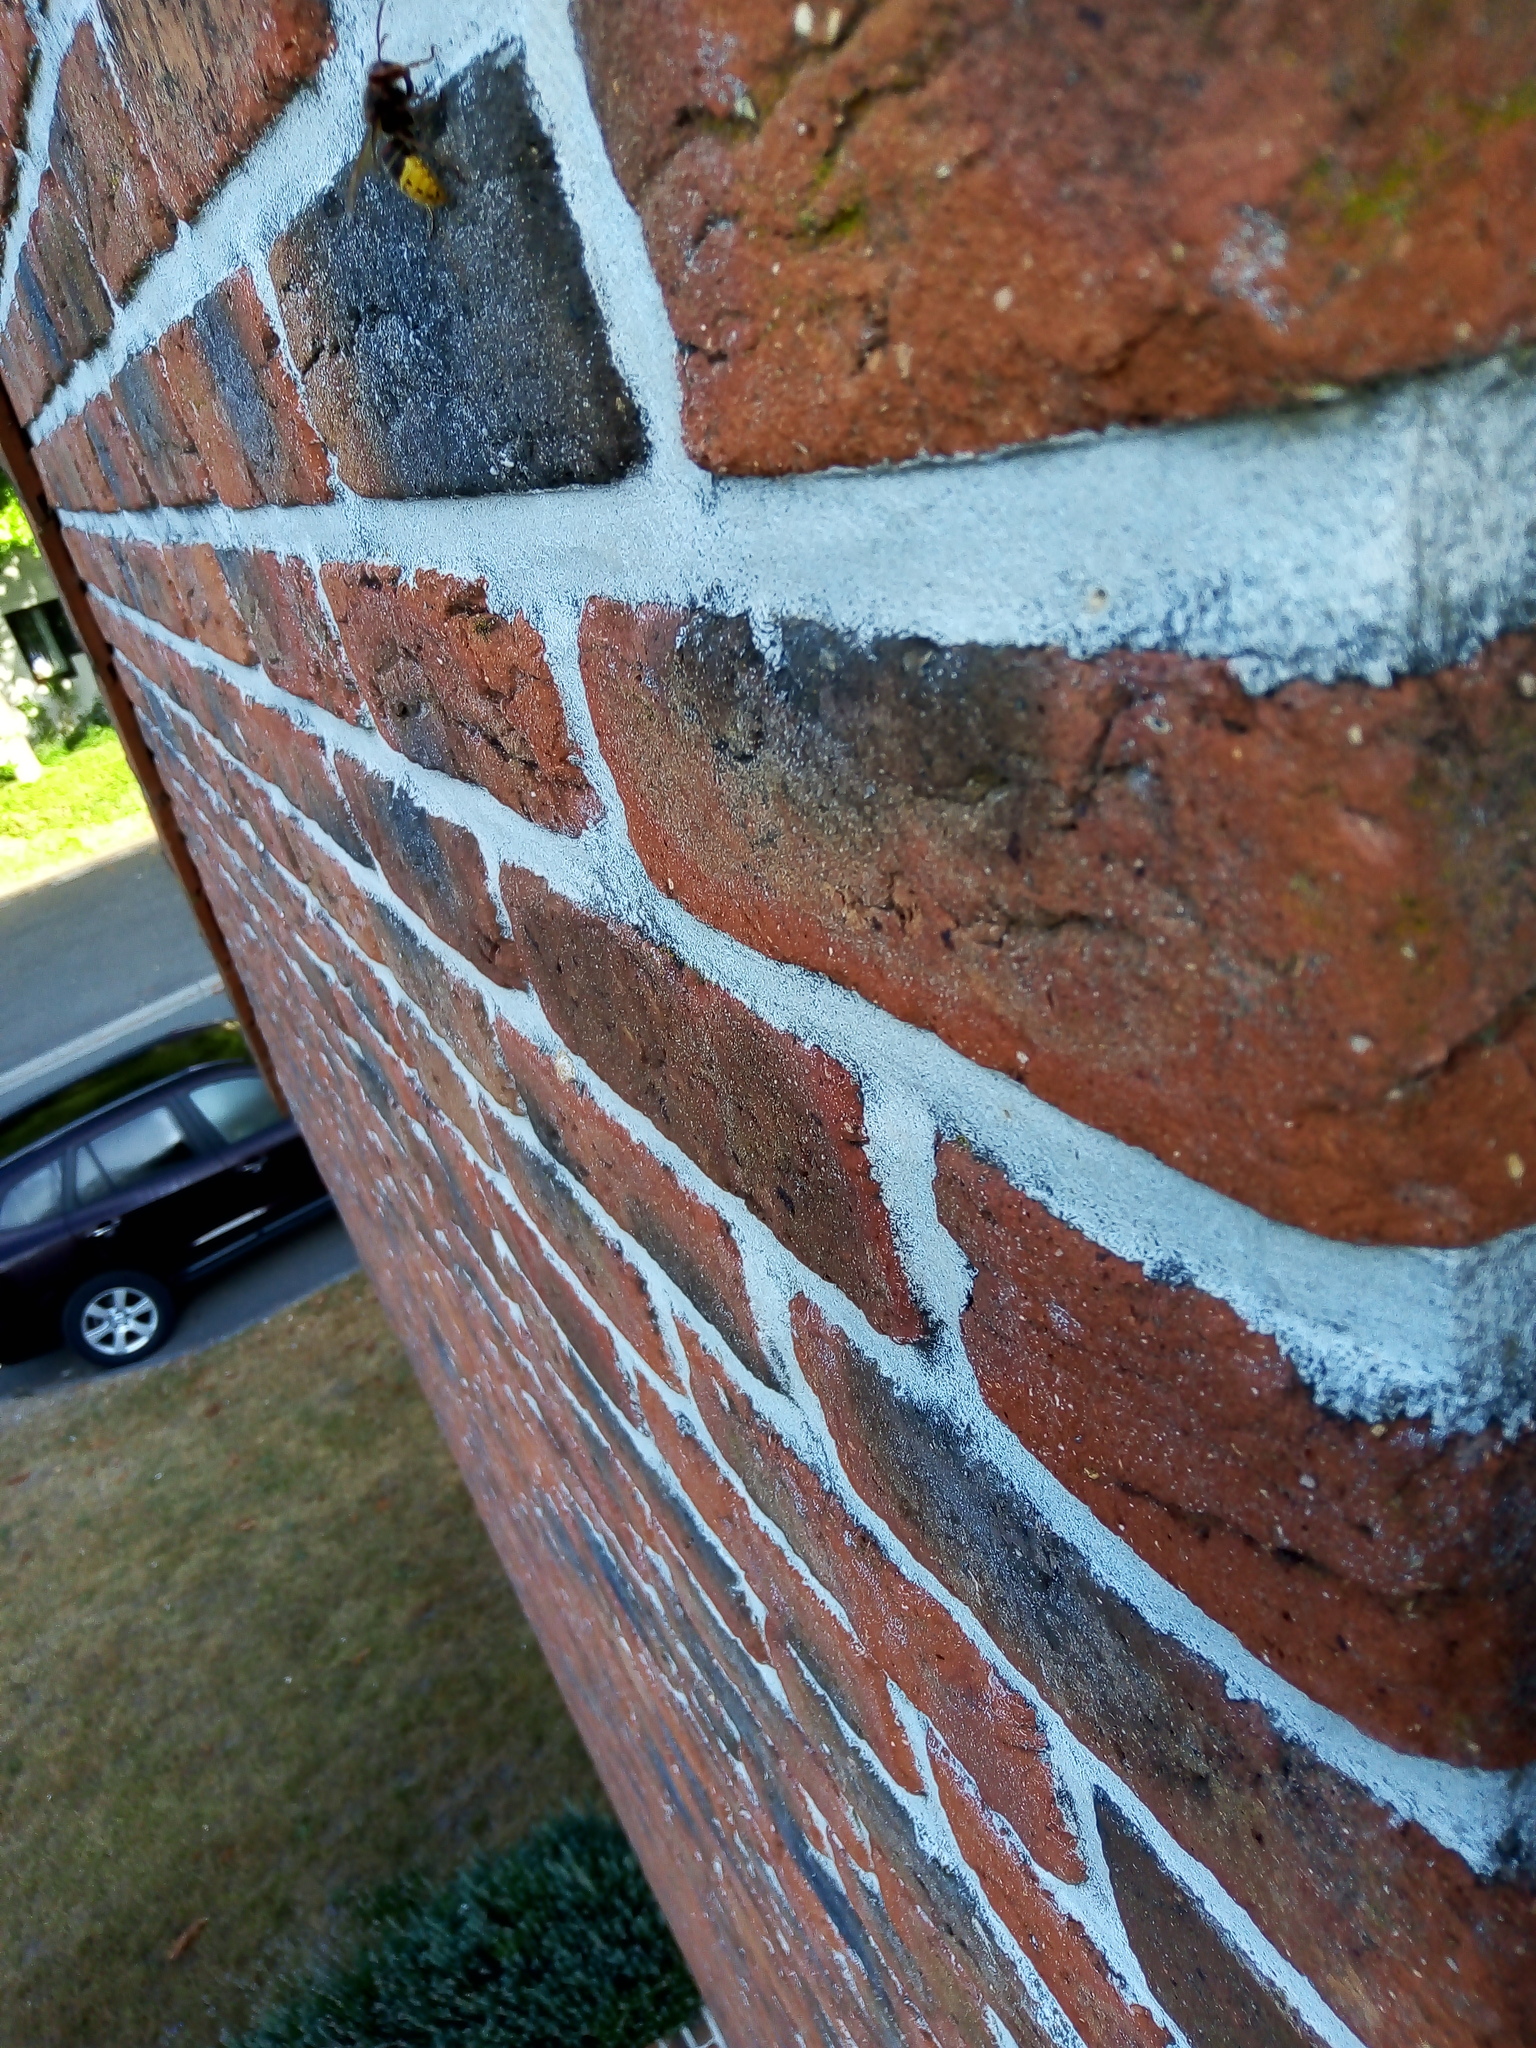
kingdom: Animalia
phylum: Arthropoda
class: Insecta
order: Hymenoptera
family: Vespidae
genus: Vespa
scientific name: Vespa crabro
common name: Hornet
